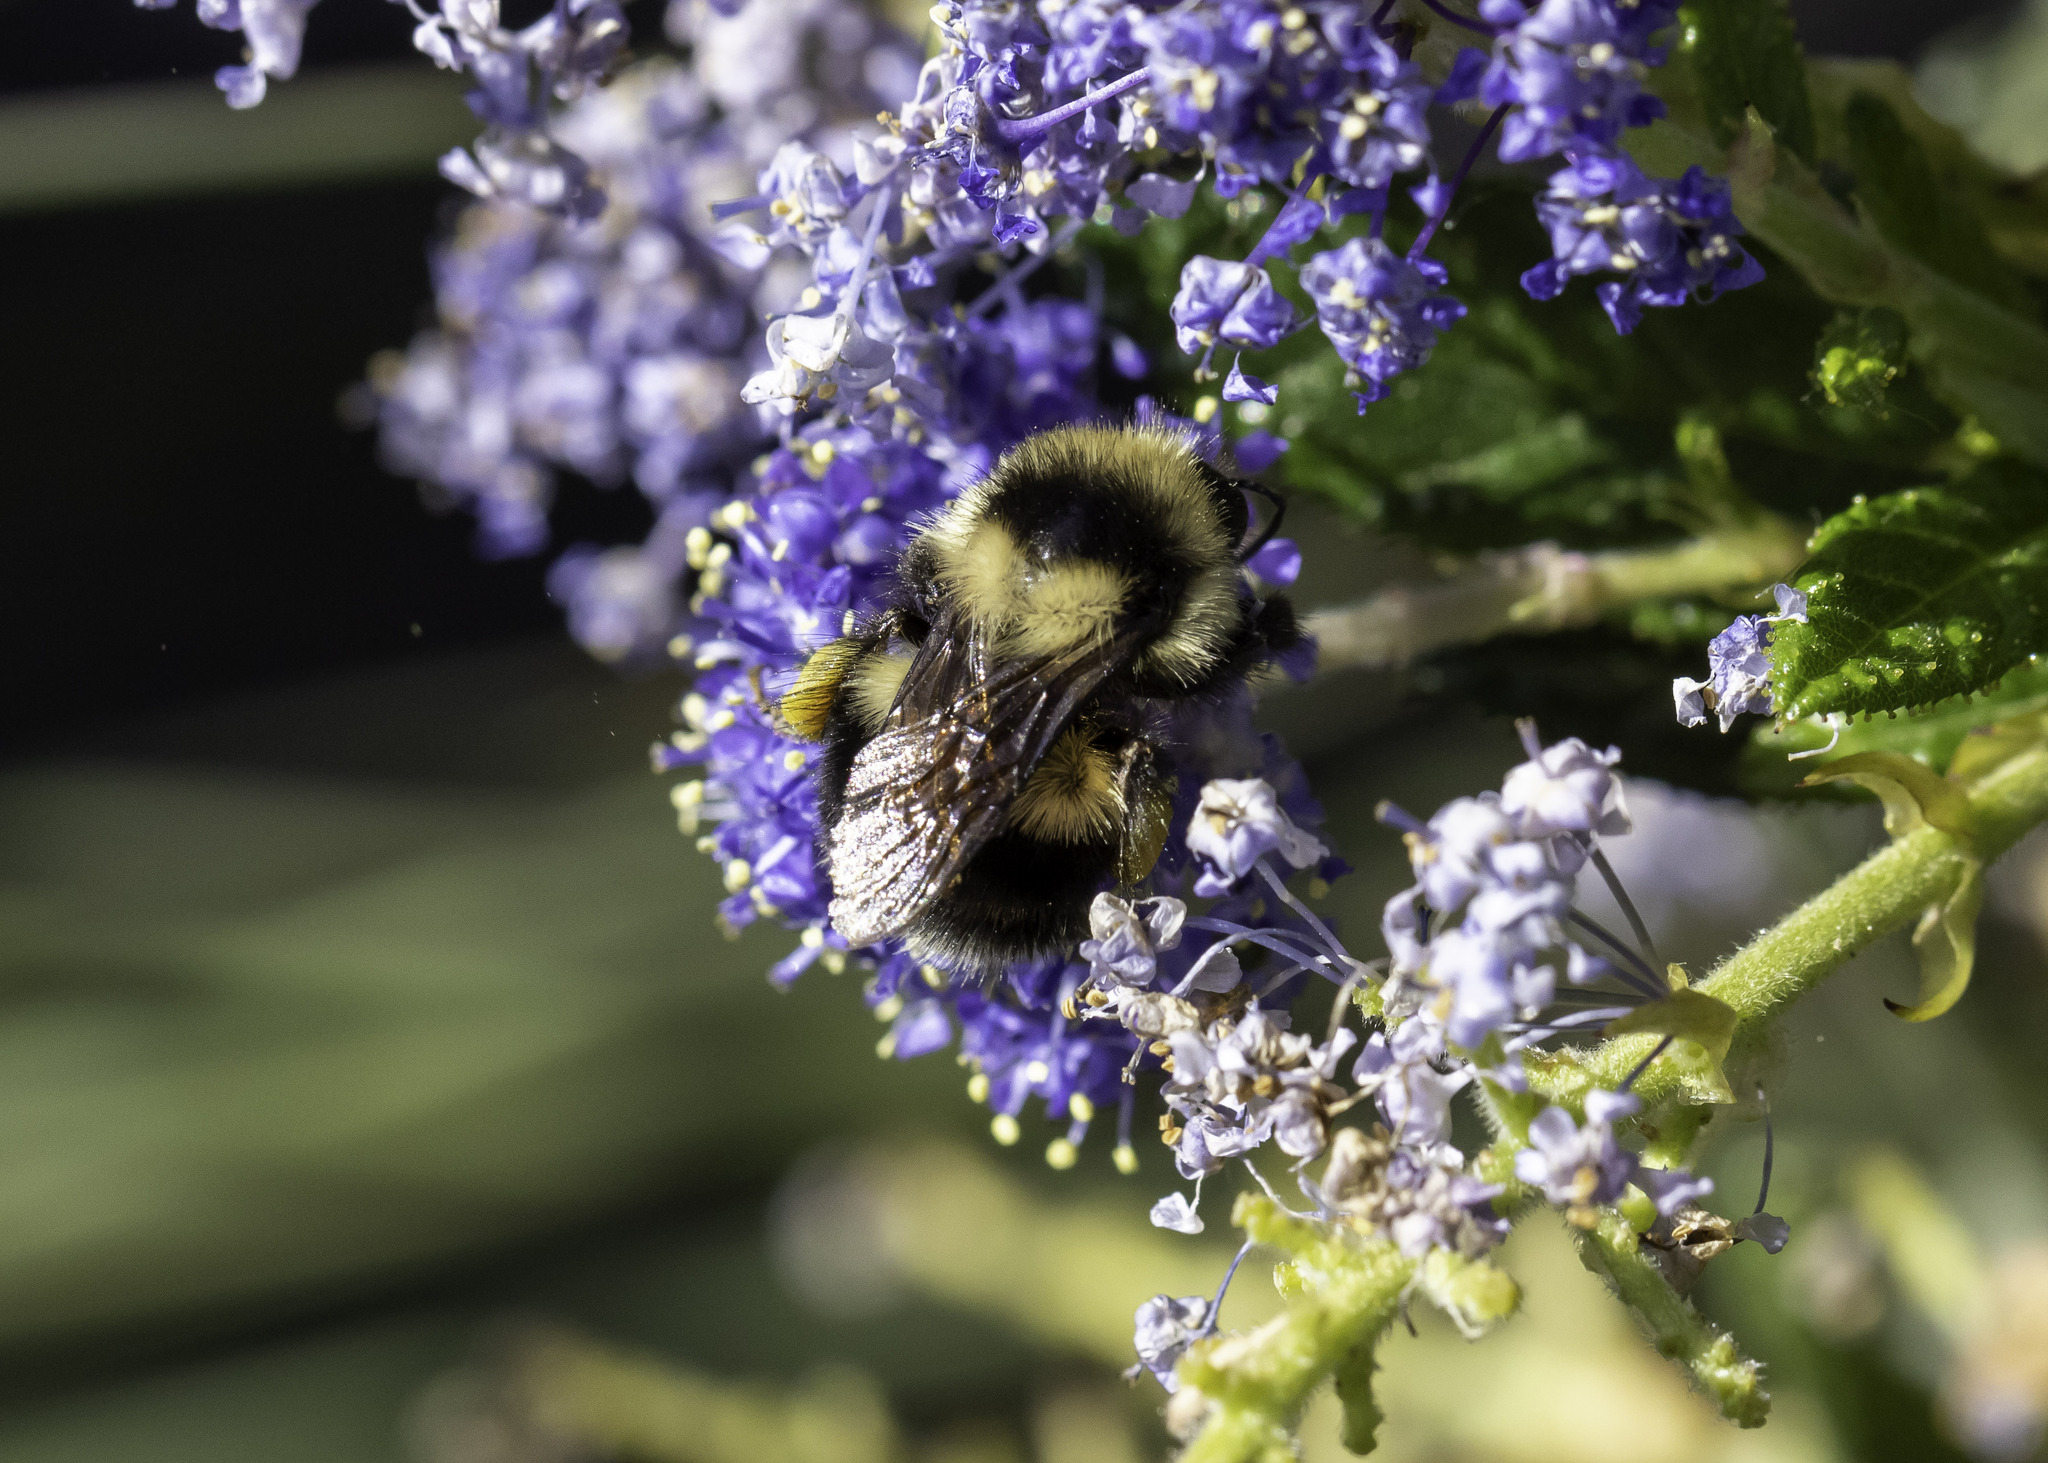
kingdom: Animalia
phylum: Arthropoda
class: Insecta
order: Hymenoptera
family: Apidae
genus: Bombus
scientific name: Bombus melanopygus
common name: Black tail bumble bee
